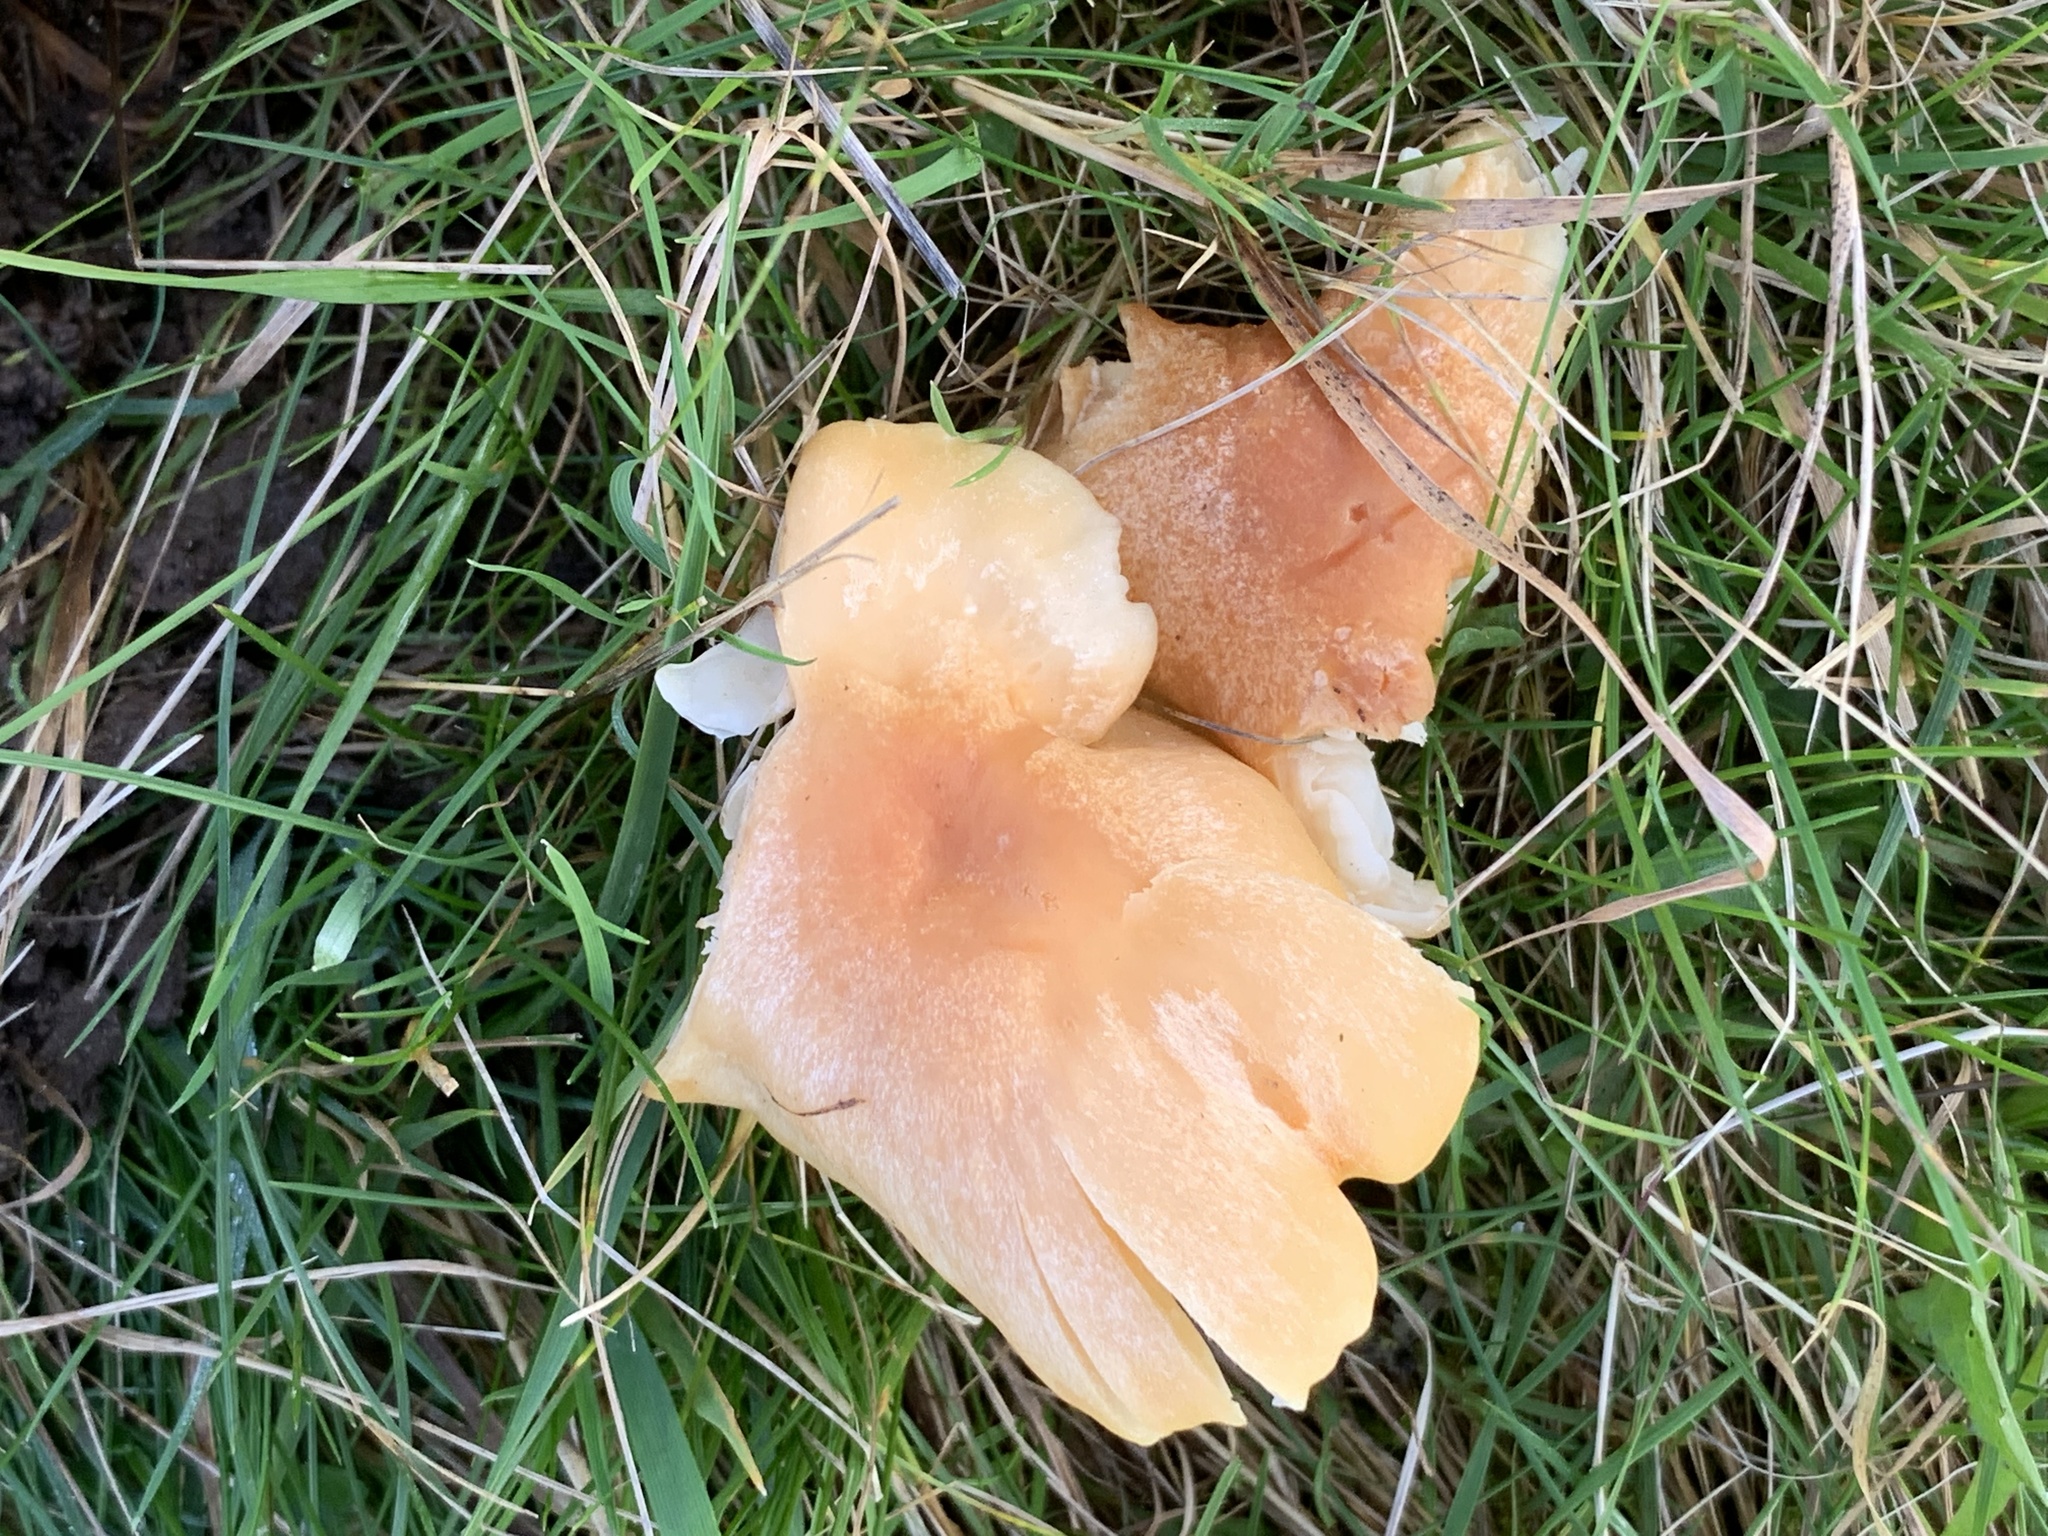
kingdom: Fungi
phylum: Basidiomycota
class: Agaricomycetes
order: Agaricales
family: Hygrophoraceae
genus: Cuphophyllus
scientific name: Cuphophyllus pratensis
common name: Meadow waxcap
